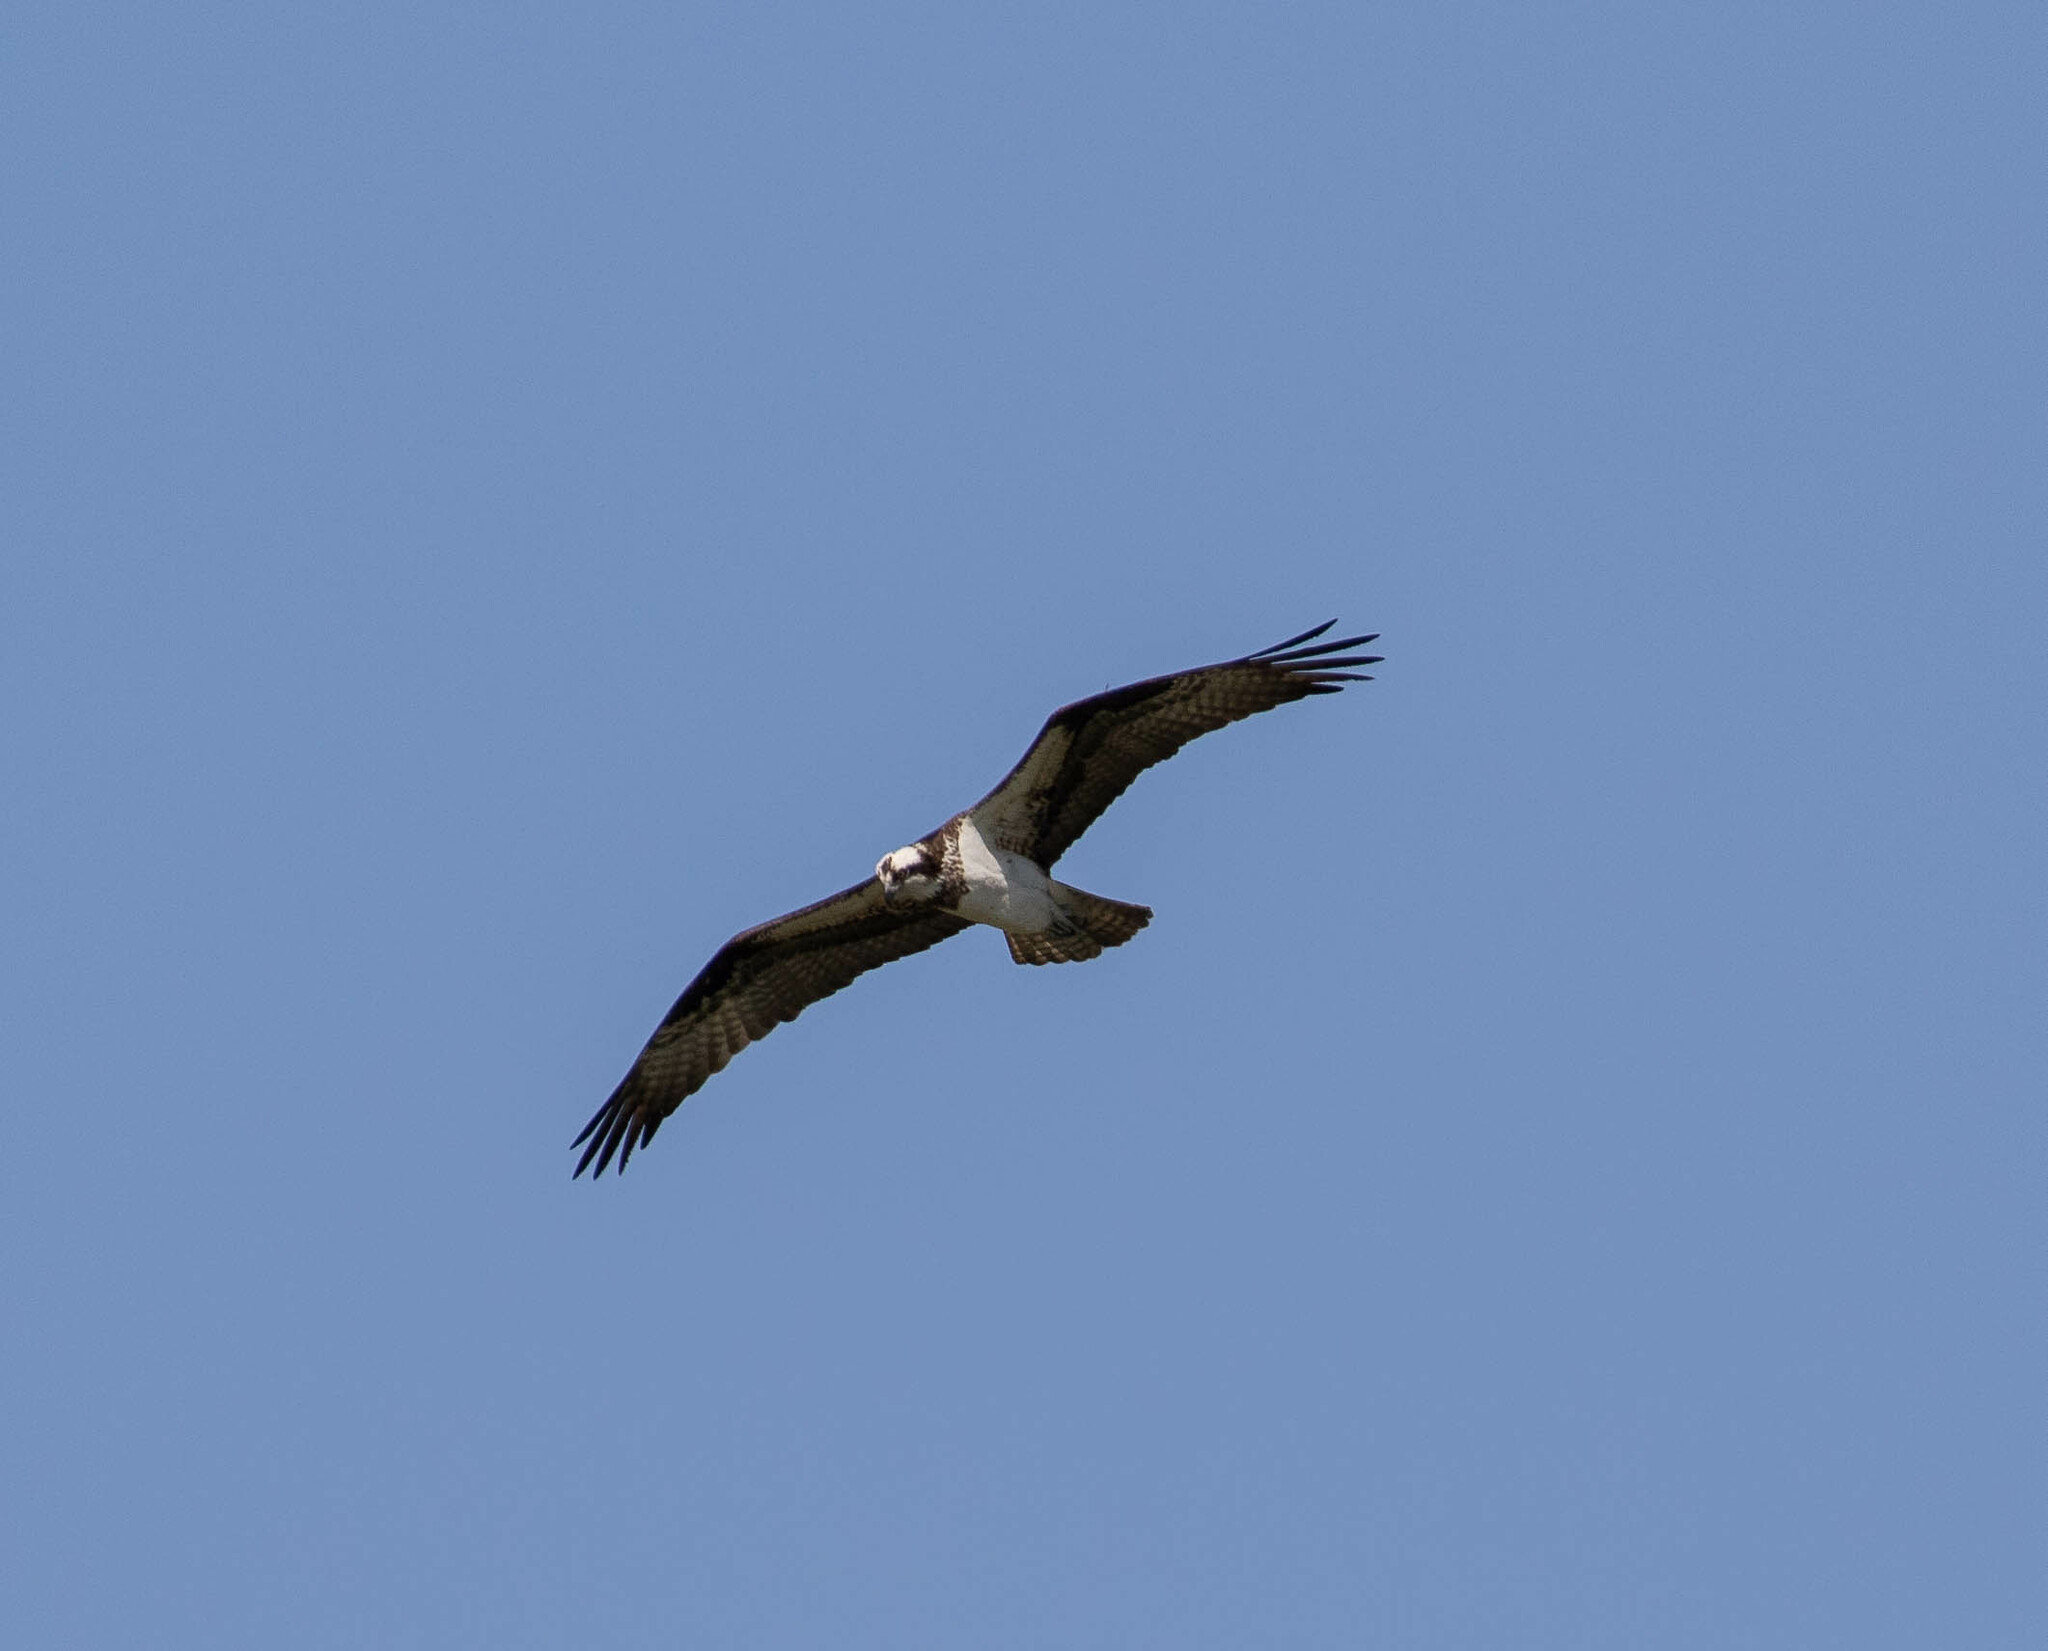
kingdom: Animalia
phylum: Chordata
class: Aves
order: Accipitriformes
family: Pandionidae
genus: Pandion
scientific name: Pandion haliaetus
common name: Osprey
